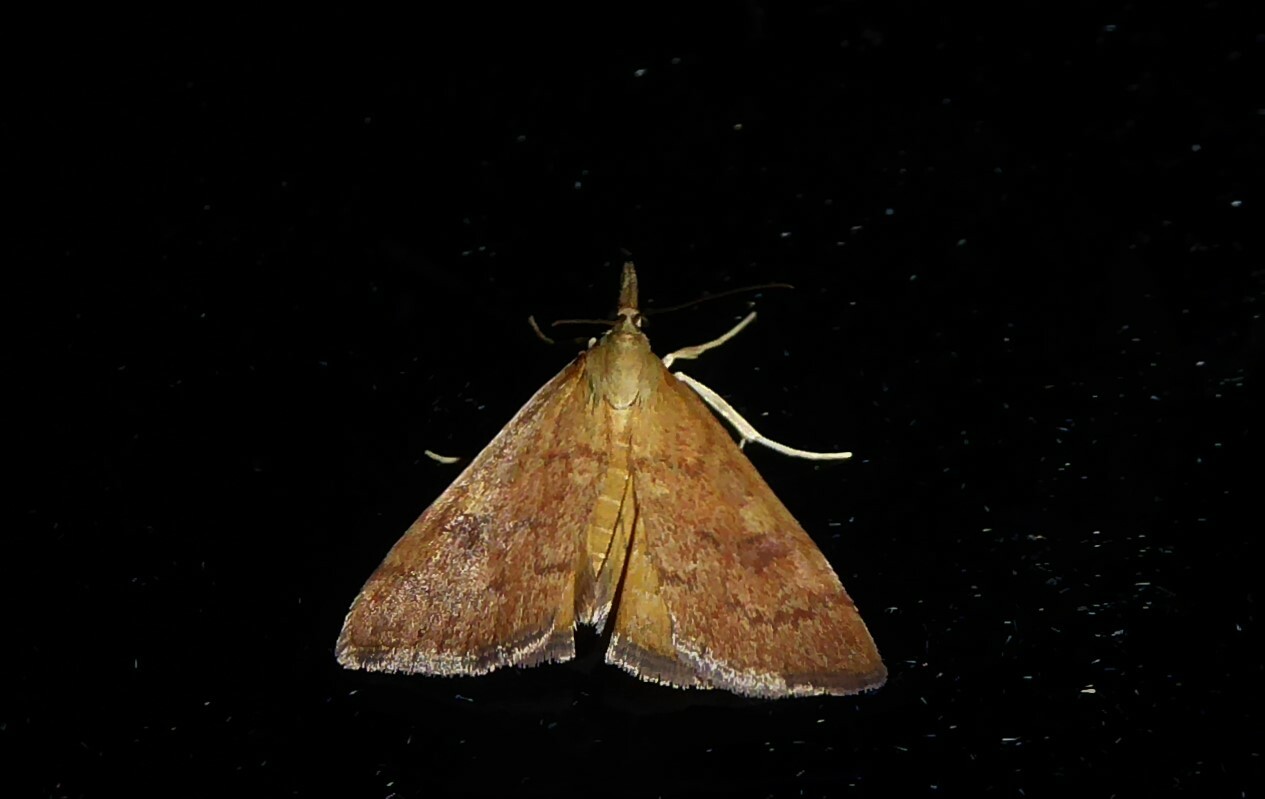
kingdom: Animalia
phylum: Arthropoda
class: Insecta
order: Lepidoptera
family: Crambidae
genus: Udea
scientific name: Udea Mnesictena flavidalis
